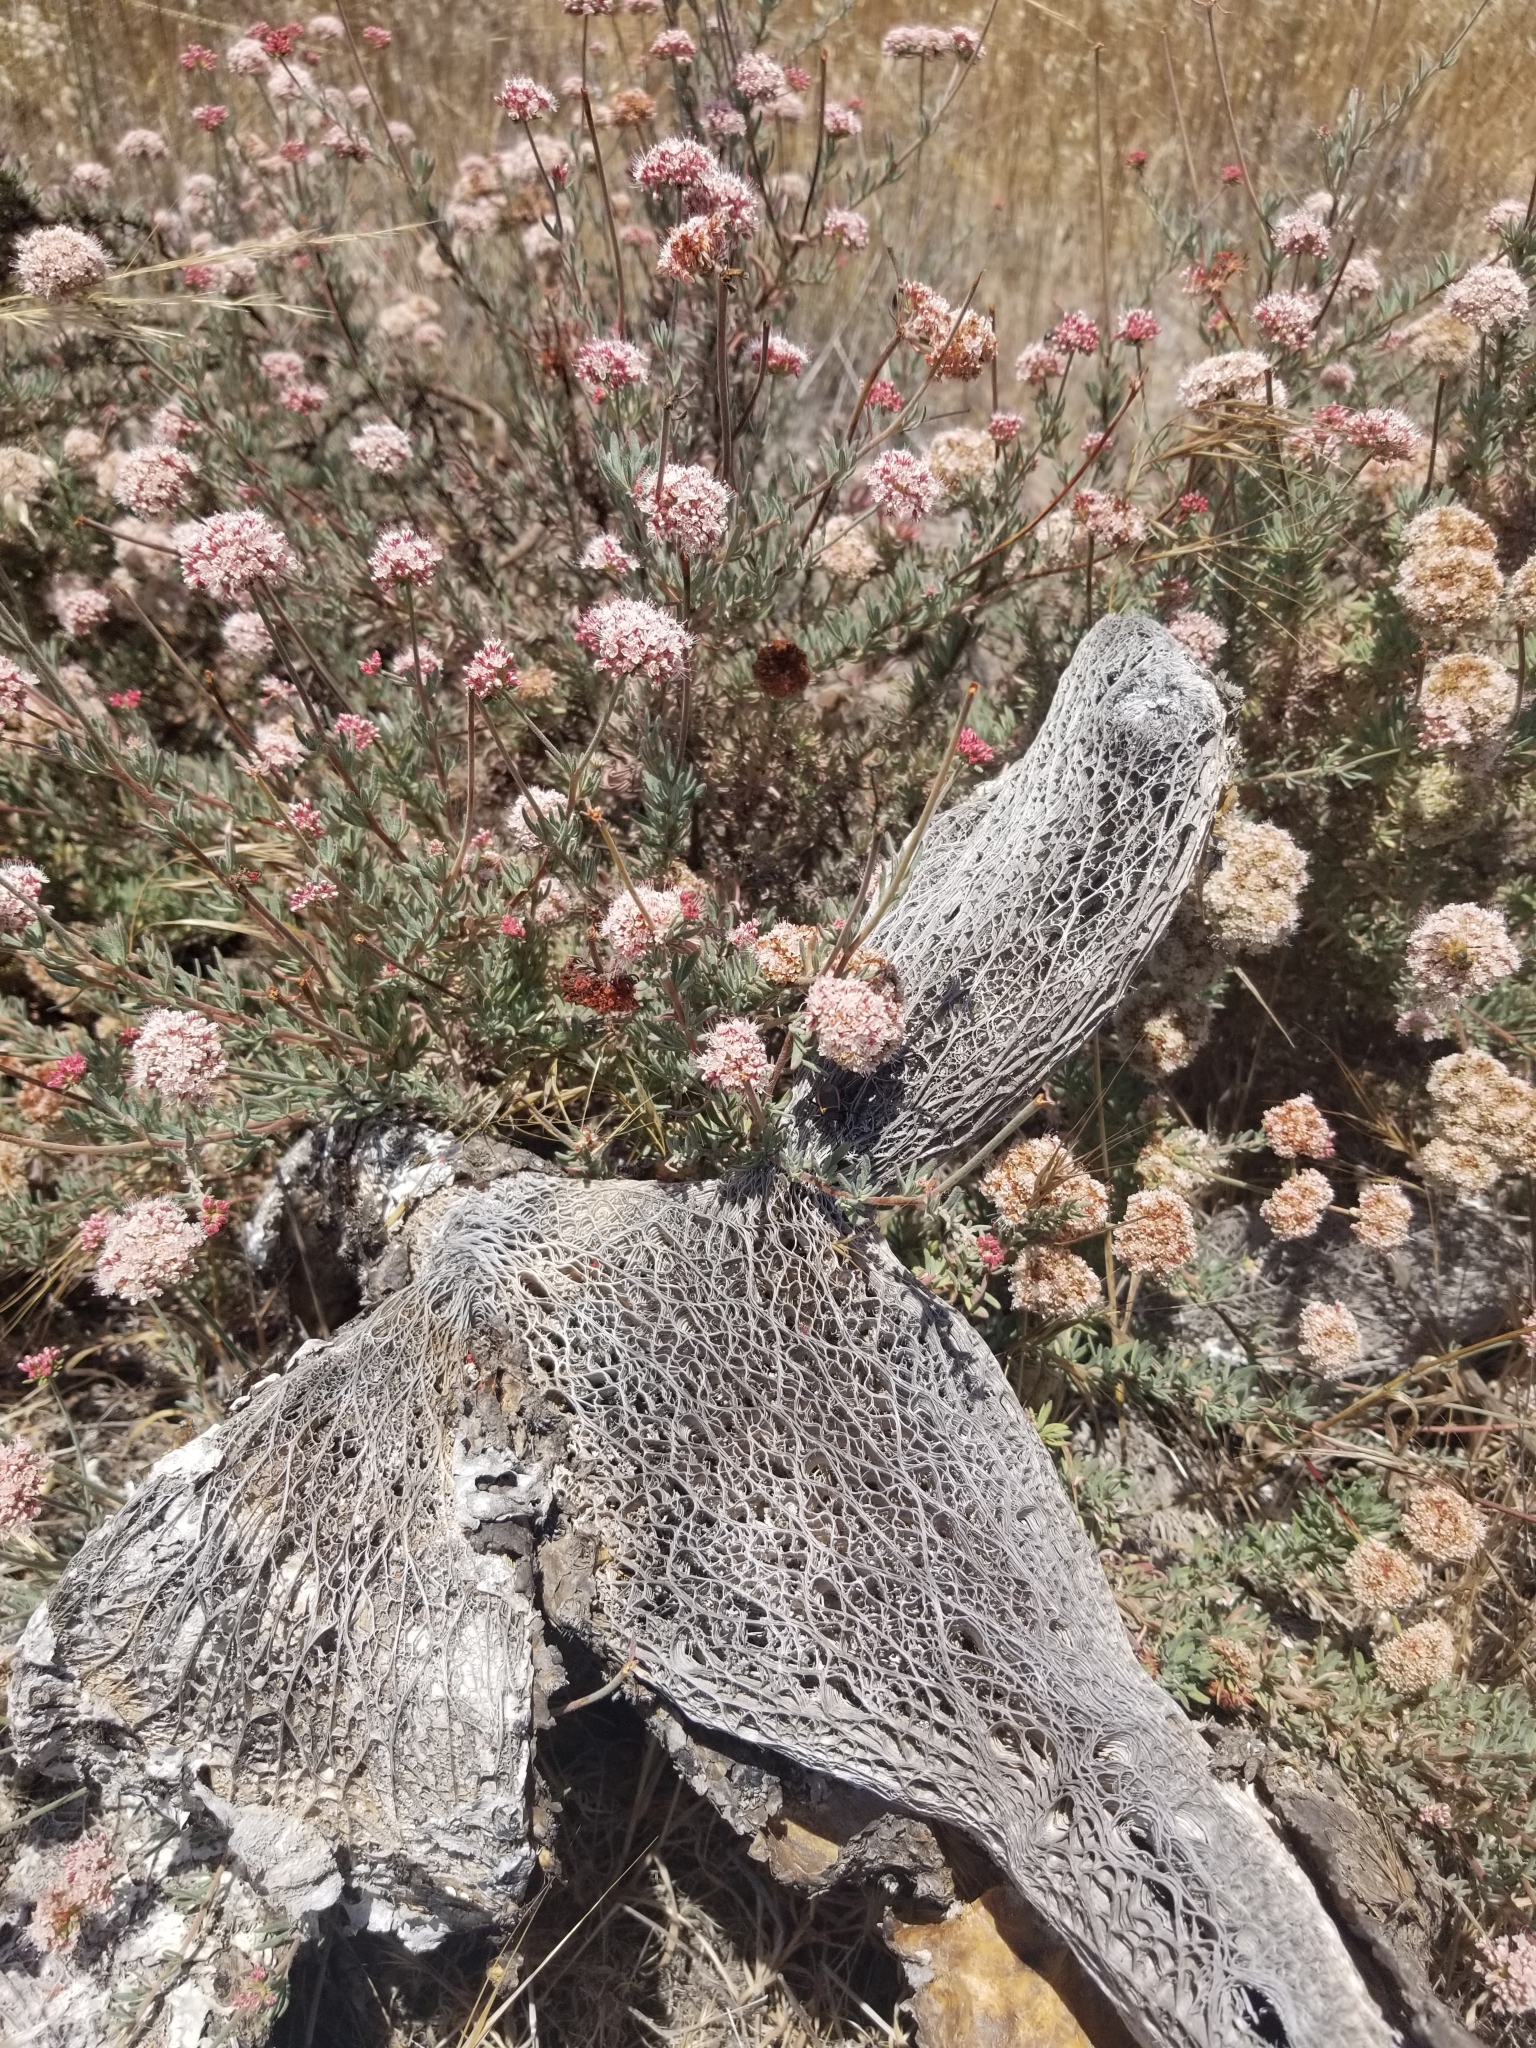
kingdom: Plantae
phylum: Tracheophyta
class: Magnoliopsida
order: Caryophyllales
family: Polygonaceae
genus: Eriogonum
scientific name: Eriogonum fasciculatum
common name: California wild buckwheat
